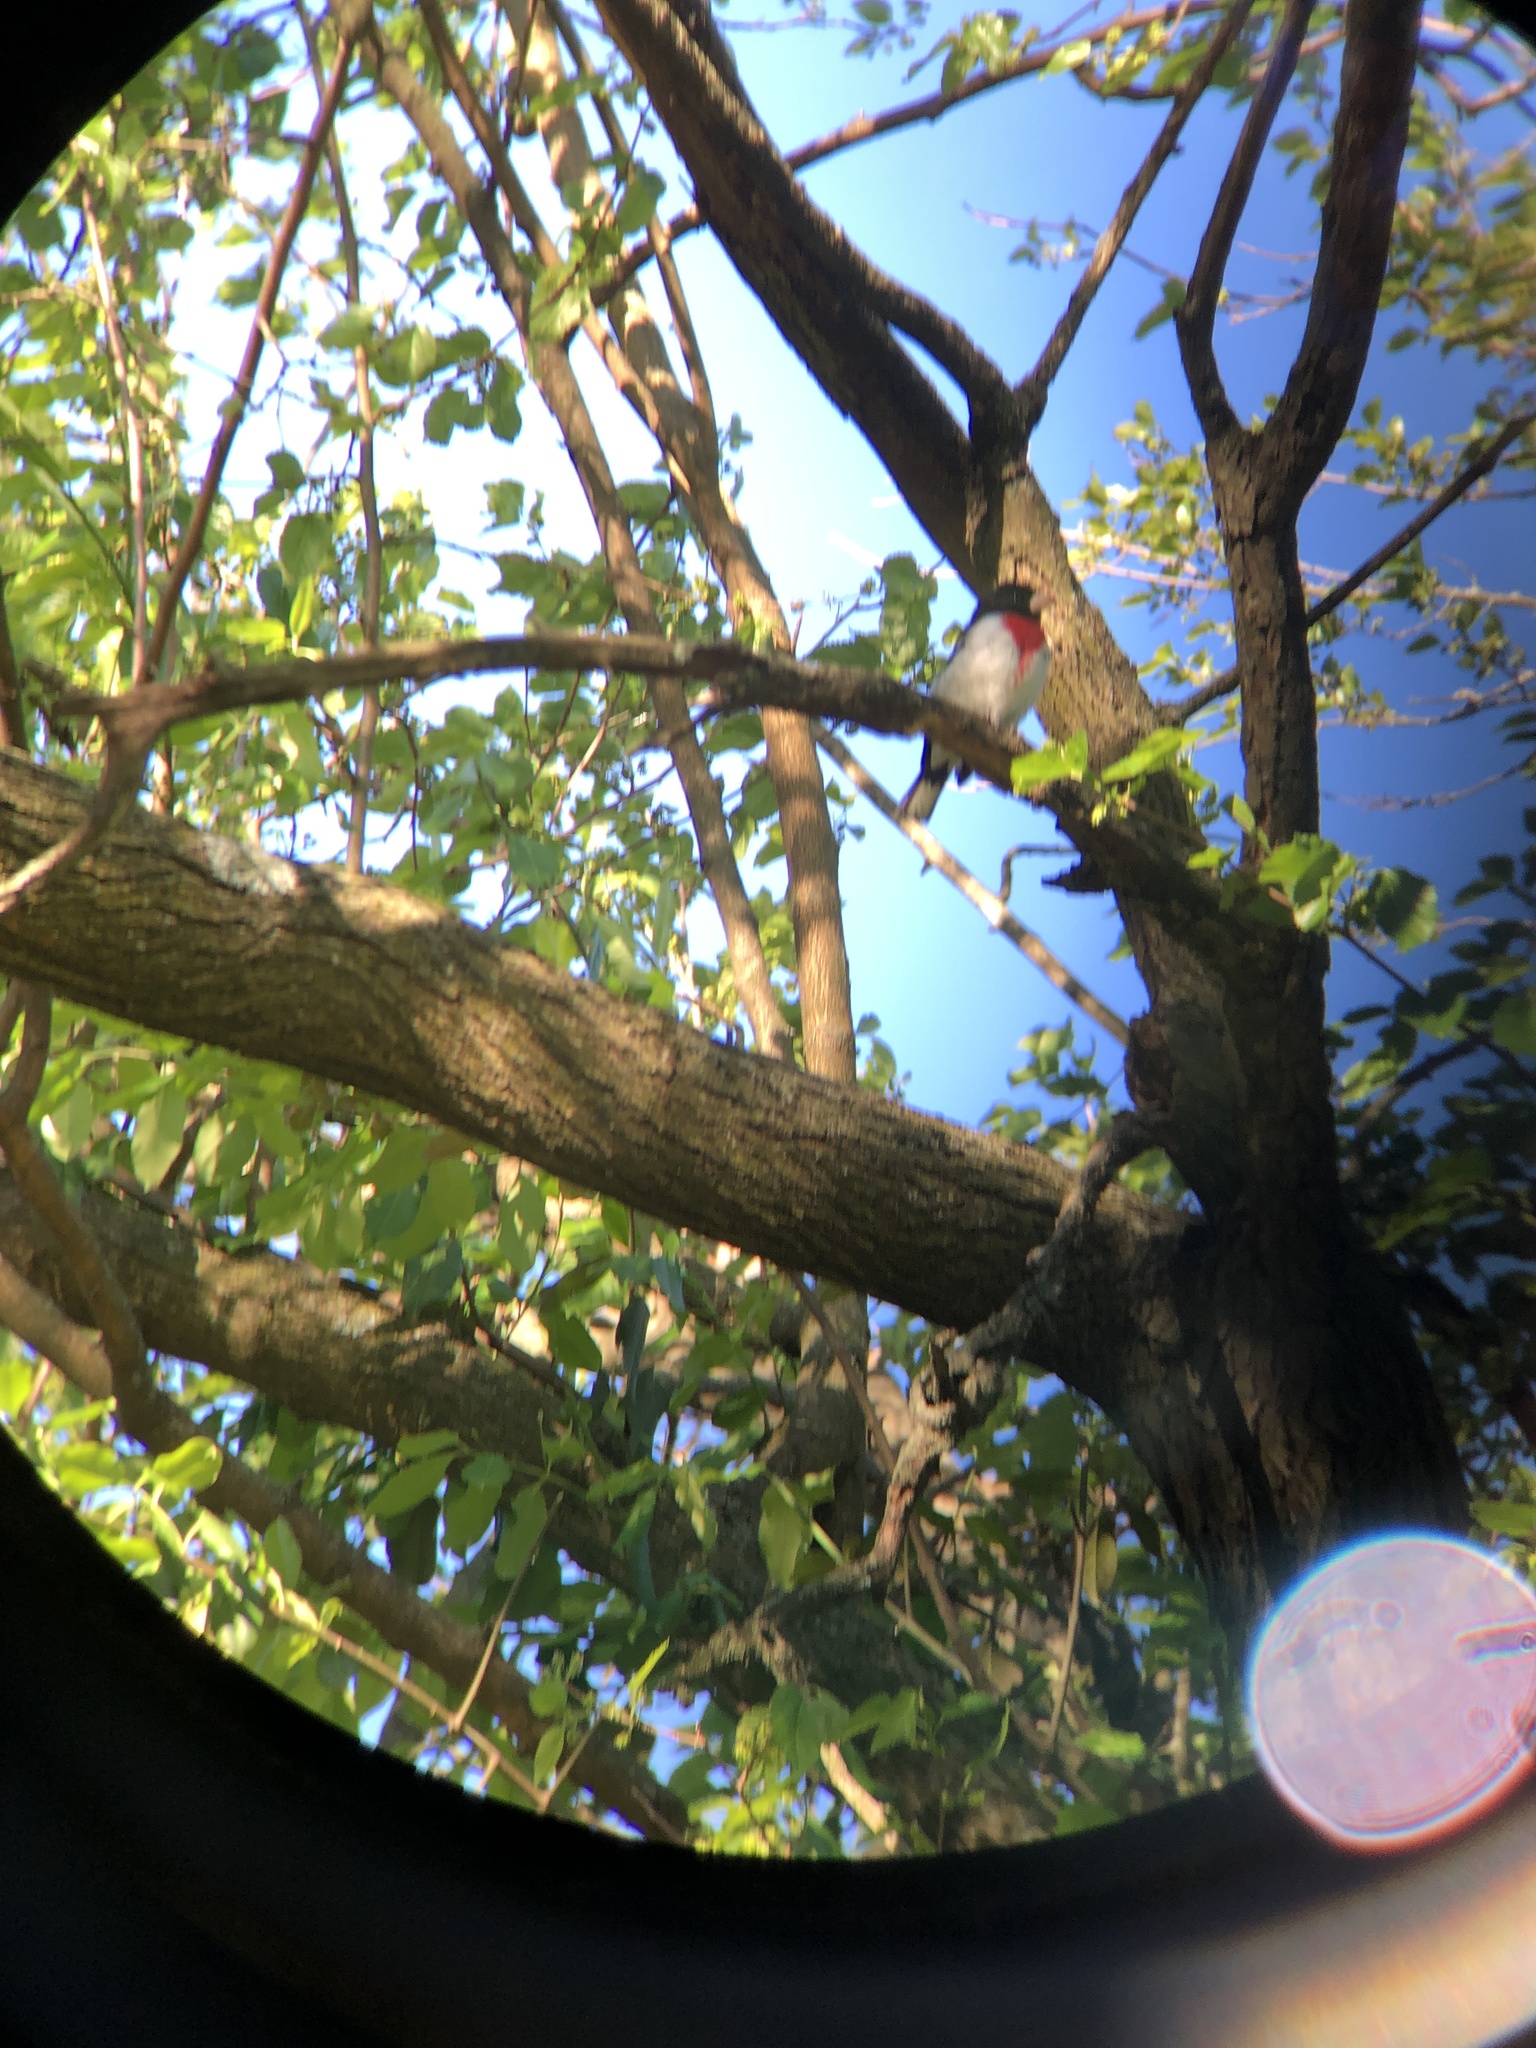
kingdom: Animalia
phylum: Chordata
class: Aves
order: Passeriformes
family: Cardinalidae
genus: Pheucticus
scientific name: Pheucticus ludovicianus
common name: Rose-breasted grosbeak
